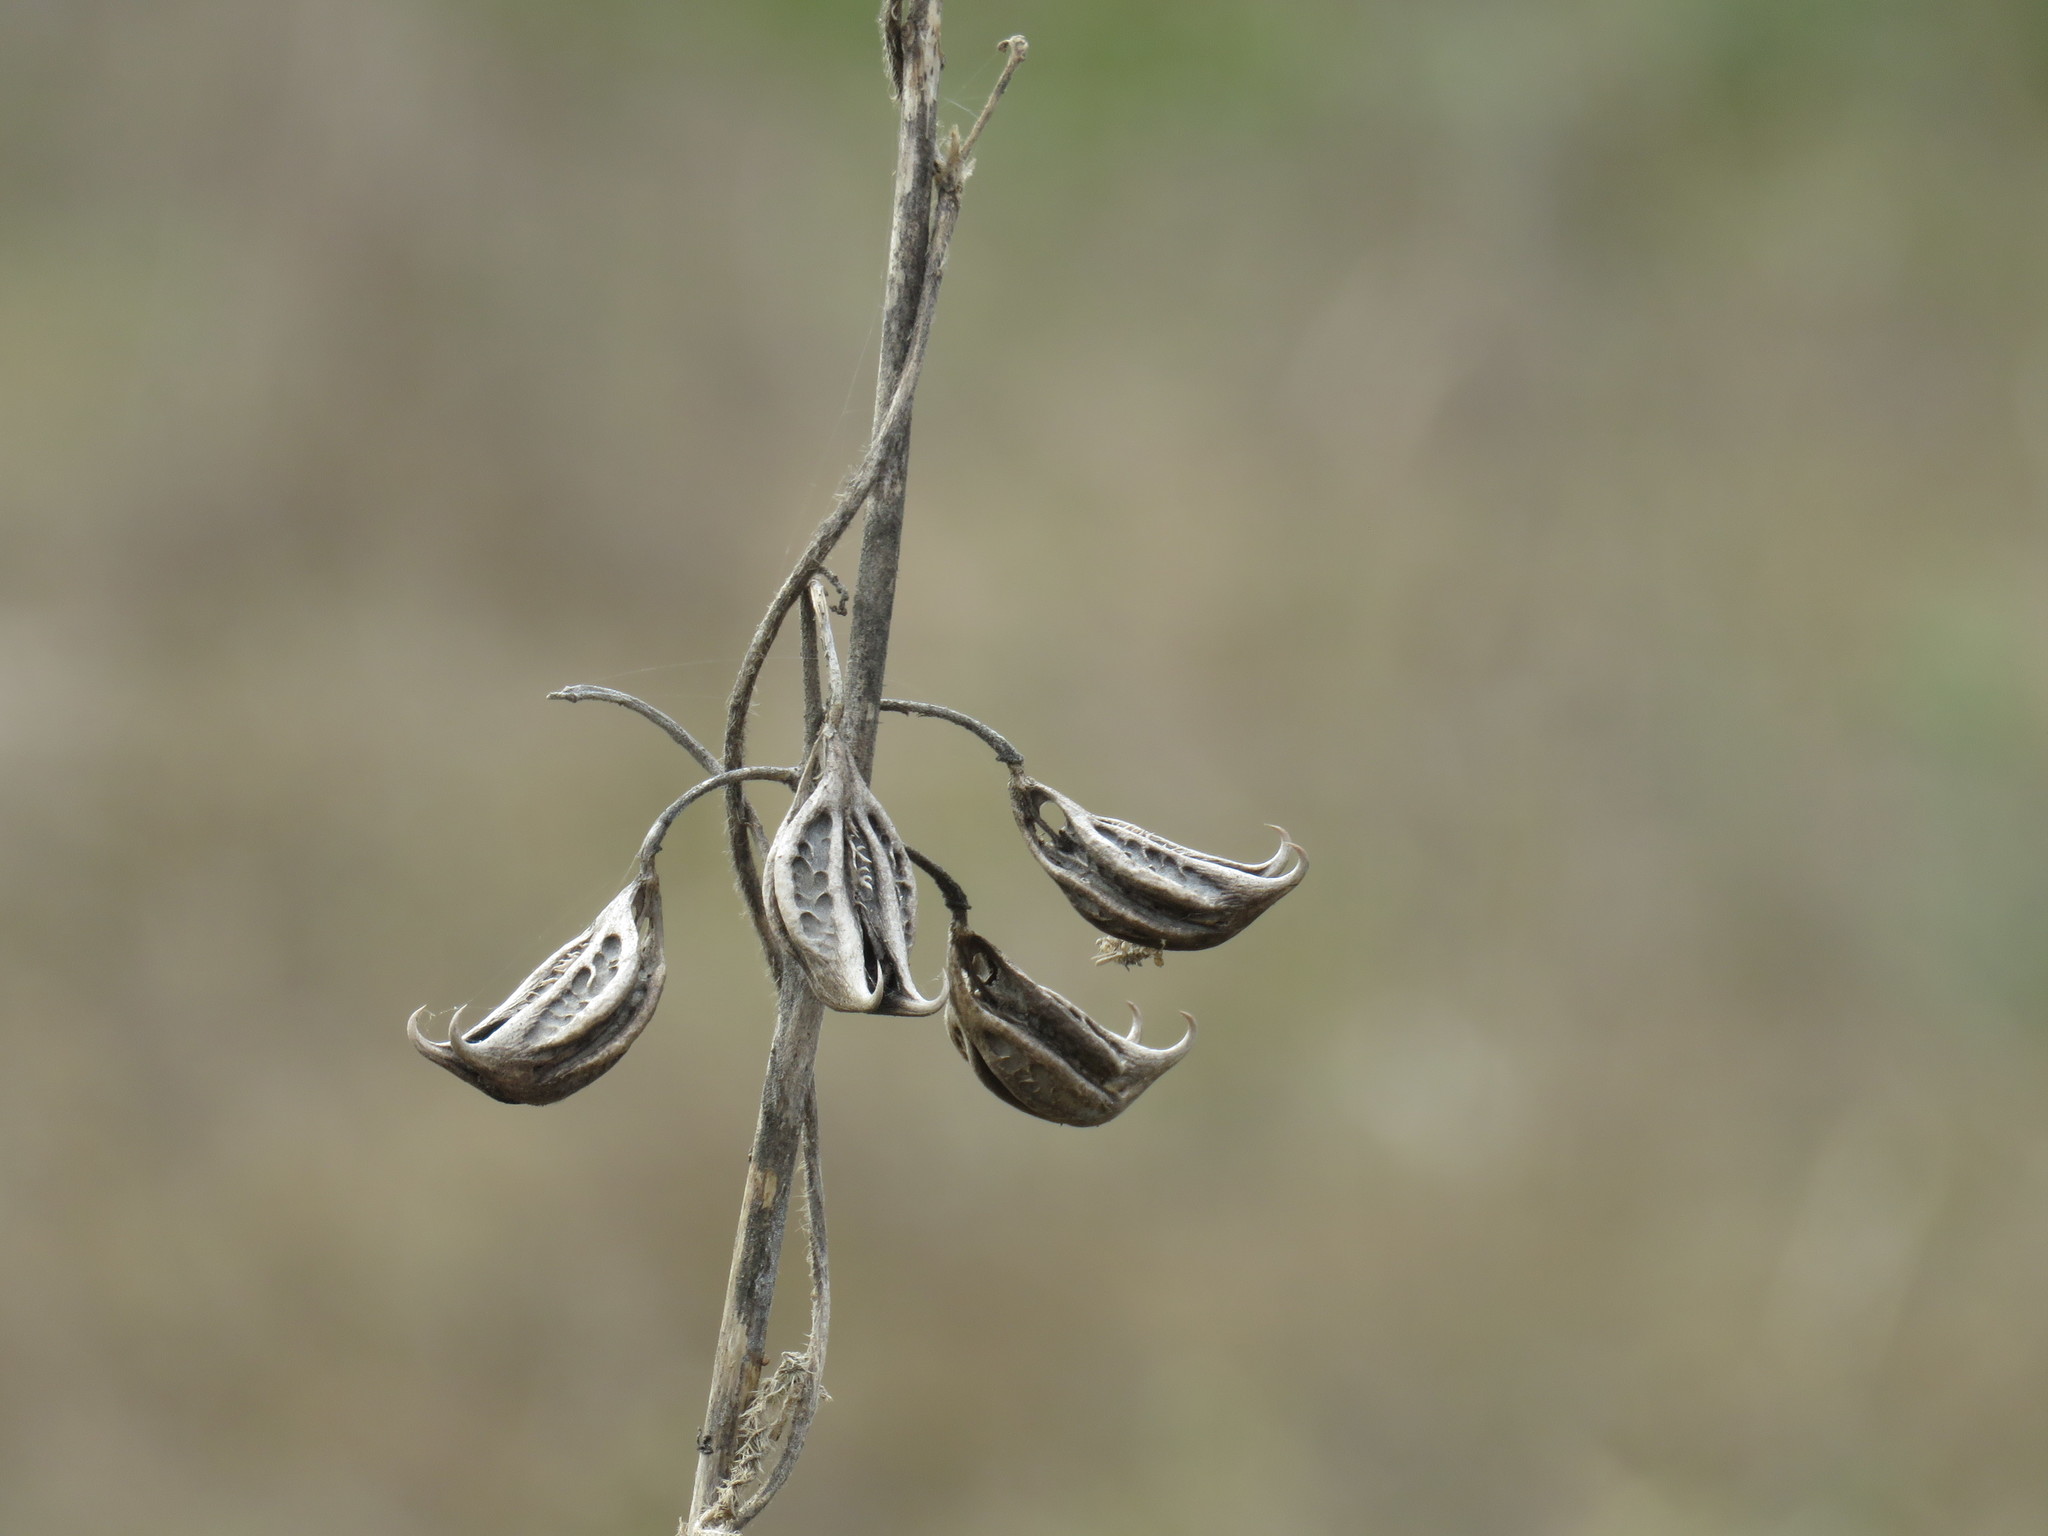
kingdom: Plantae
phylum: Tracheophyta
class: Magnoliopsida
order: Lamiales
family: Martyniaceae
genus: Martynia
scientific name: Martynia annua
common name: Tiger's-claw
